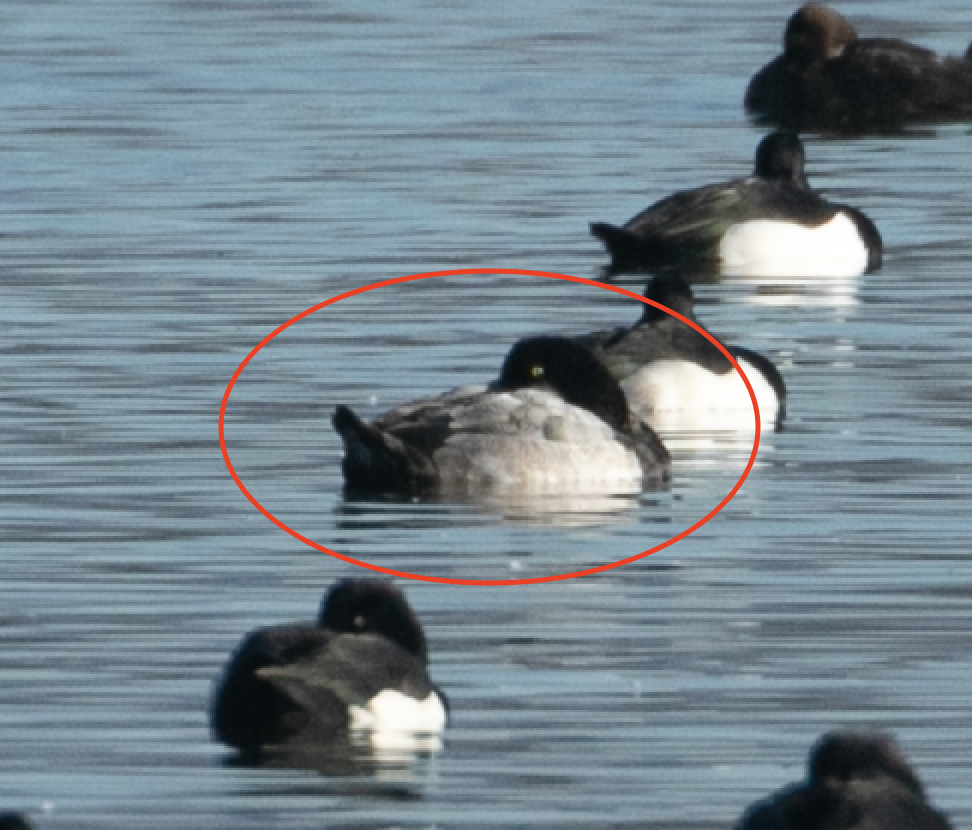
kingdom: Animalia
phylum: Chordata
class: Aves
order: Anseriformes
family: Anatidae
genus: Aythya
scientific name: Aythya marila
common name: Greater scaup
